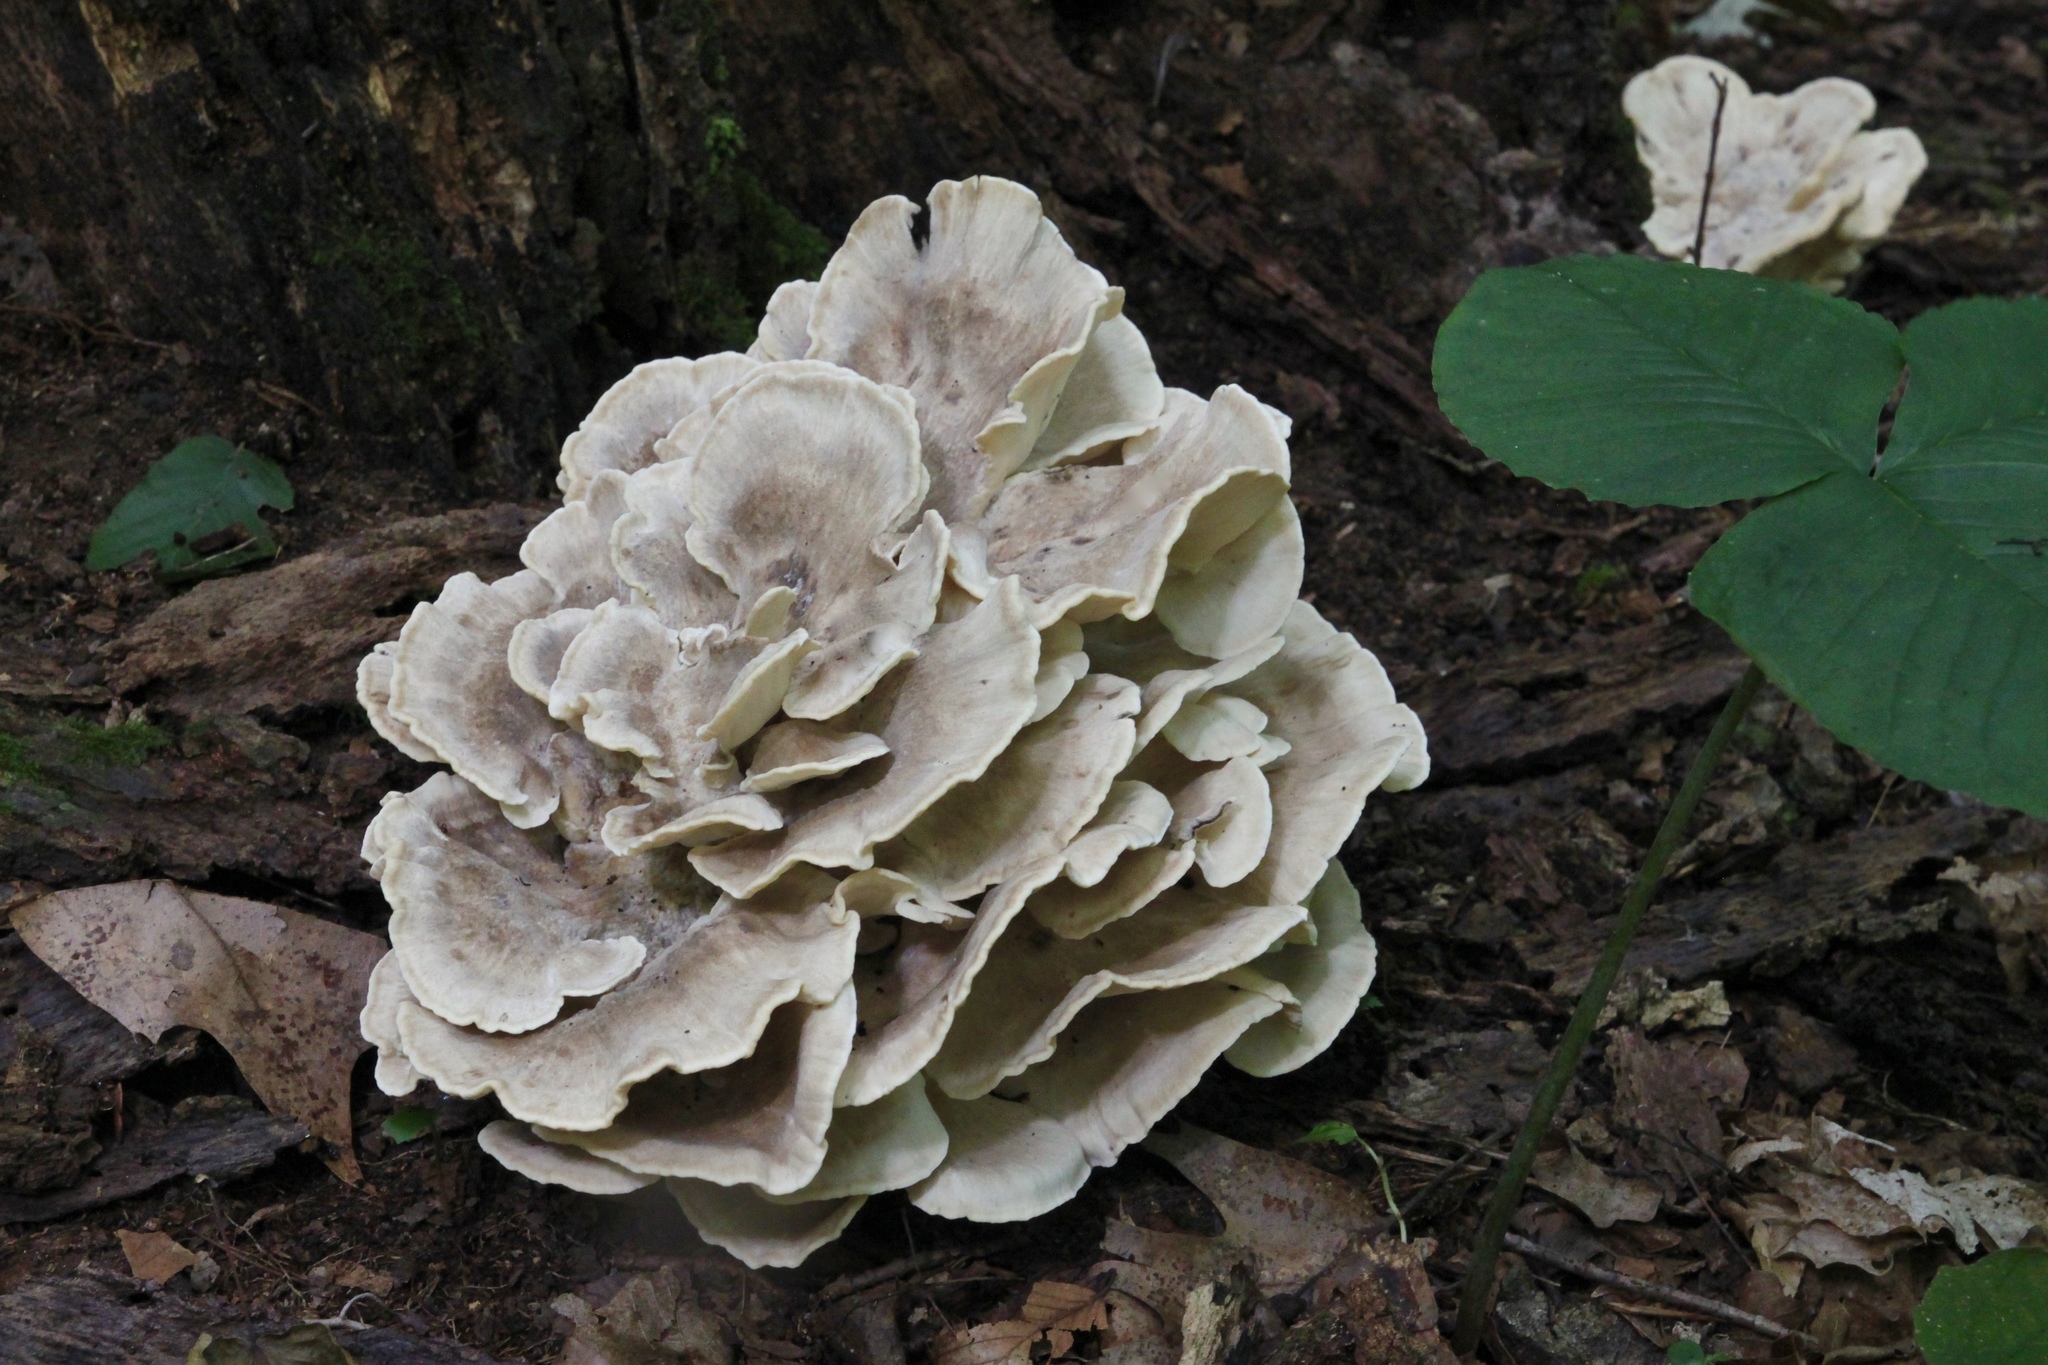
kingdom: Fungi
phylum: Basidiomycota
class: Agaricomycetes
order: Polyporales
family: Meripilaceae
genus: Meripilus
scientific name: Meripilus sumstinei
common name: Black-staining polypore
